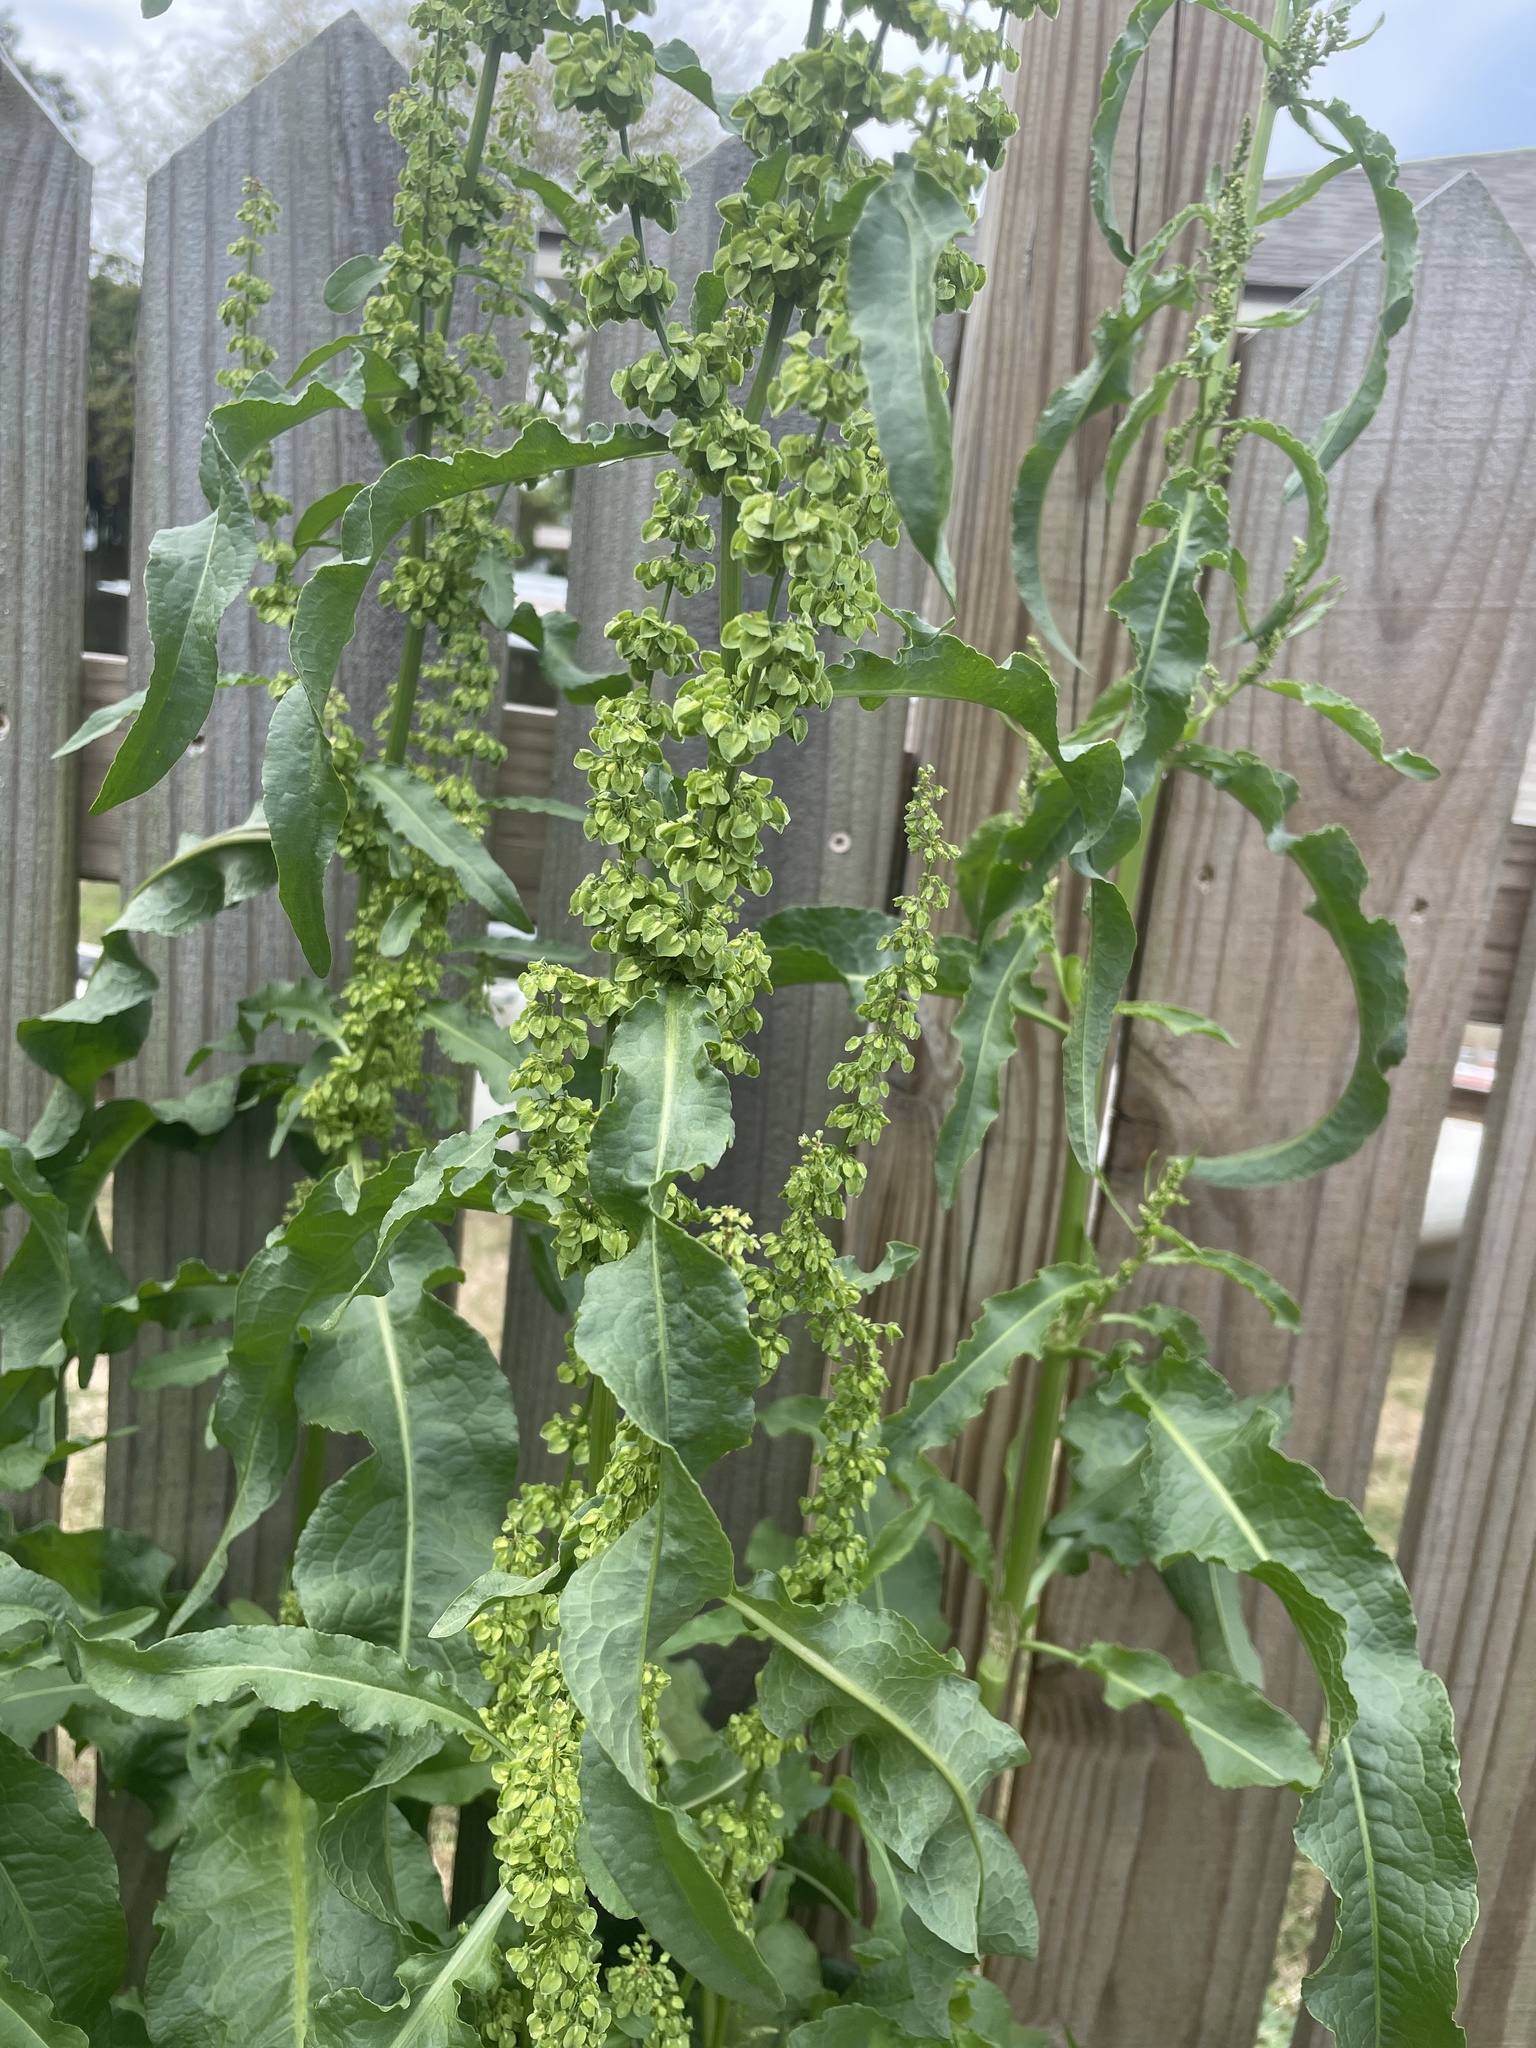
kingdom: Plantae
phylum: Tracheophyta
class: Magnoliopsida
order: Caryophyllales
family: Polygonaceae
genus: Rumex
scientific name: Rumex crispus
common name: Curled dock
